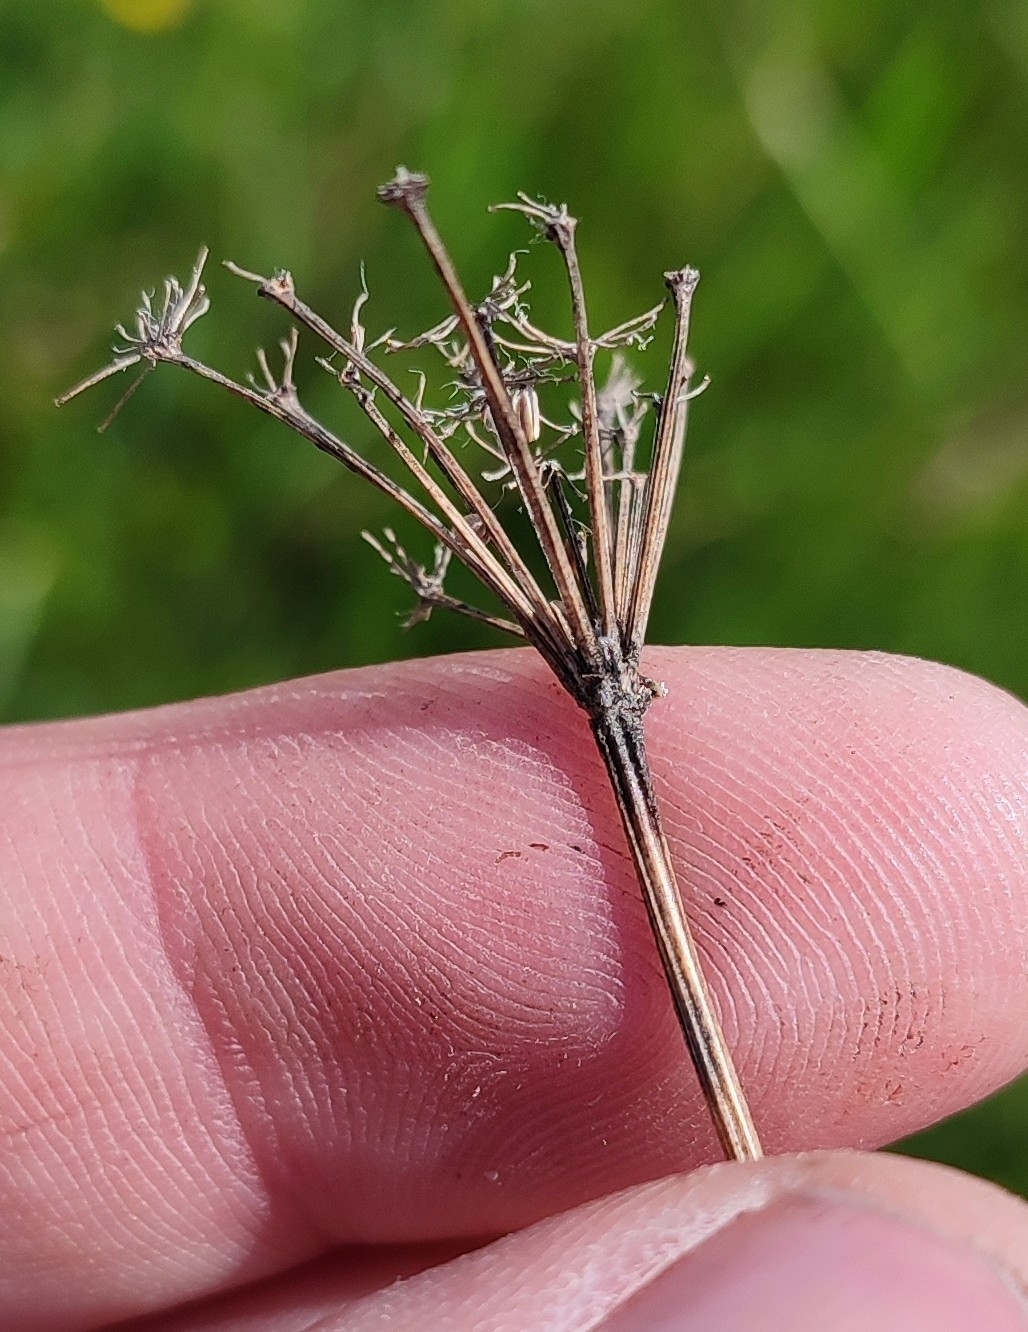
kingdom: Plantae
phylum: Tracheophyta
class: Magnoliopsida
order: Apiales
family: Apiaceae
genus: Kadenia
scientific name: Kadenia dubia
